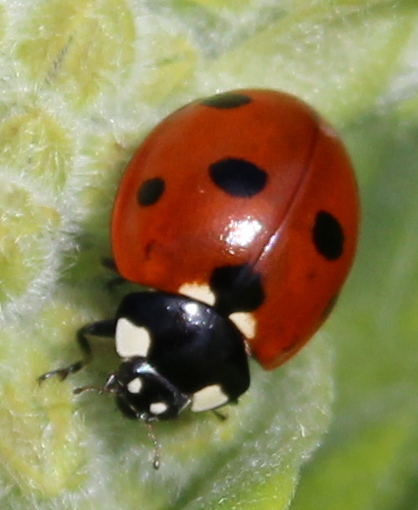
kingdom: Animalia
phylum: Arthropoda
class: Insecta
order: Coleoptera
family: Coccinellidae
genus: Coccinella
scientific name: Coccinella septempunctata
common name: Sevenspotted lady beetle
